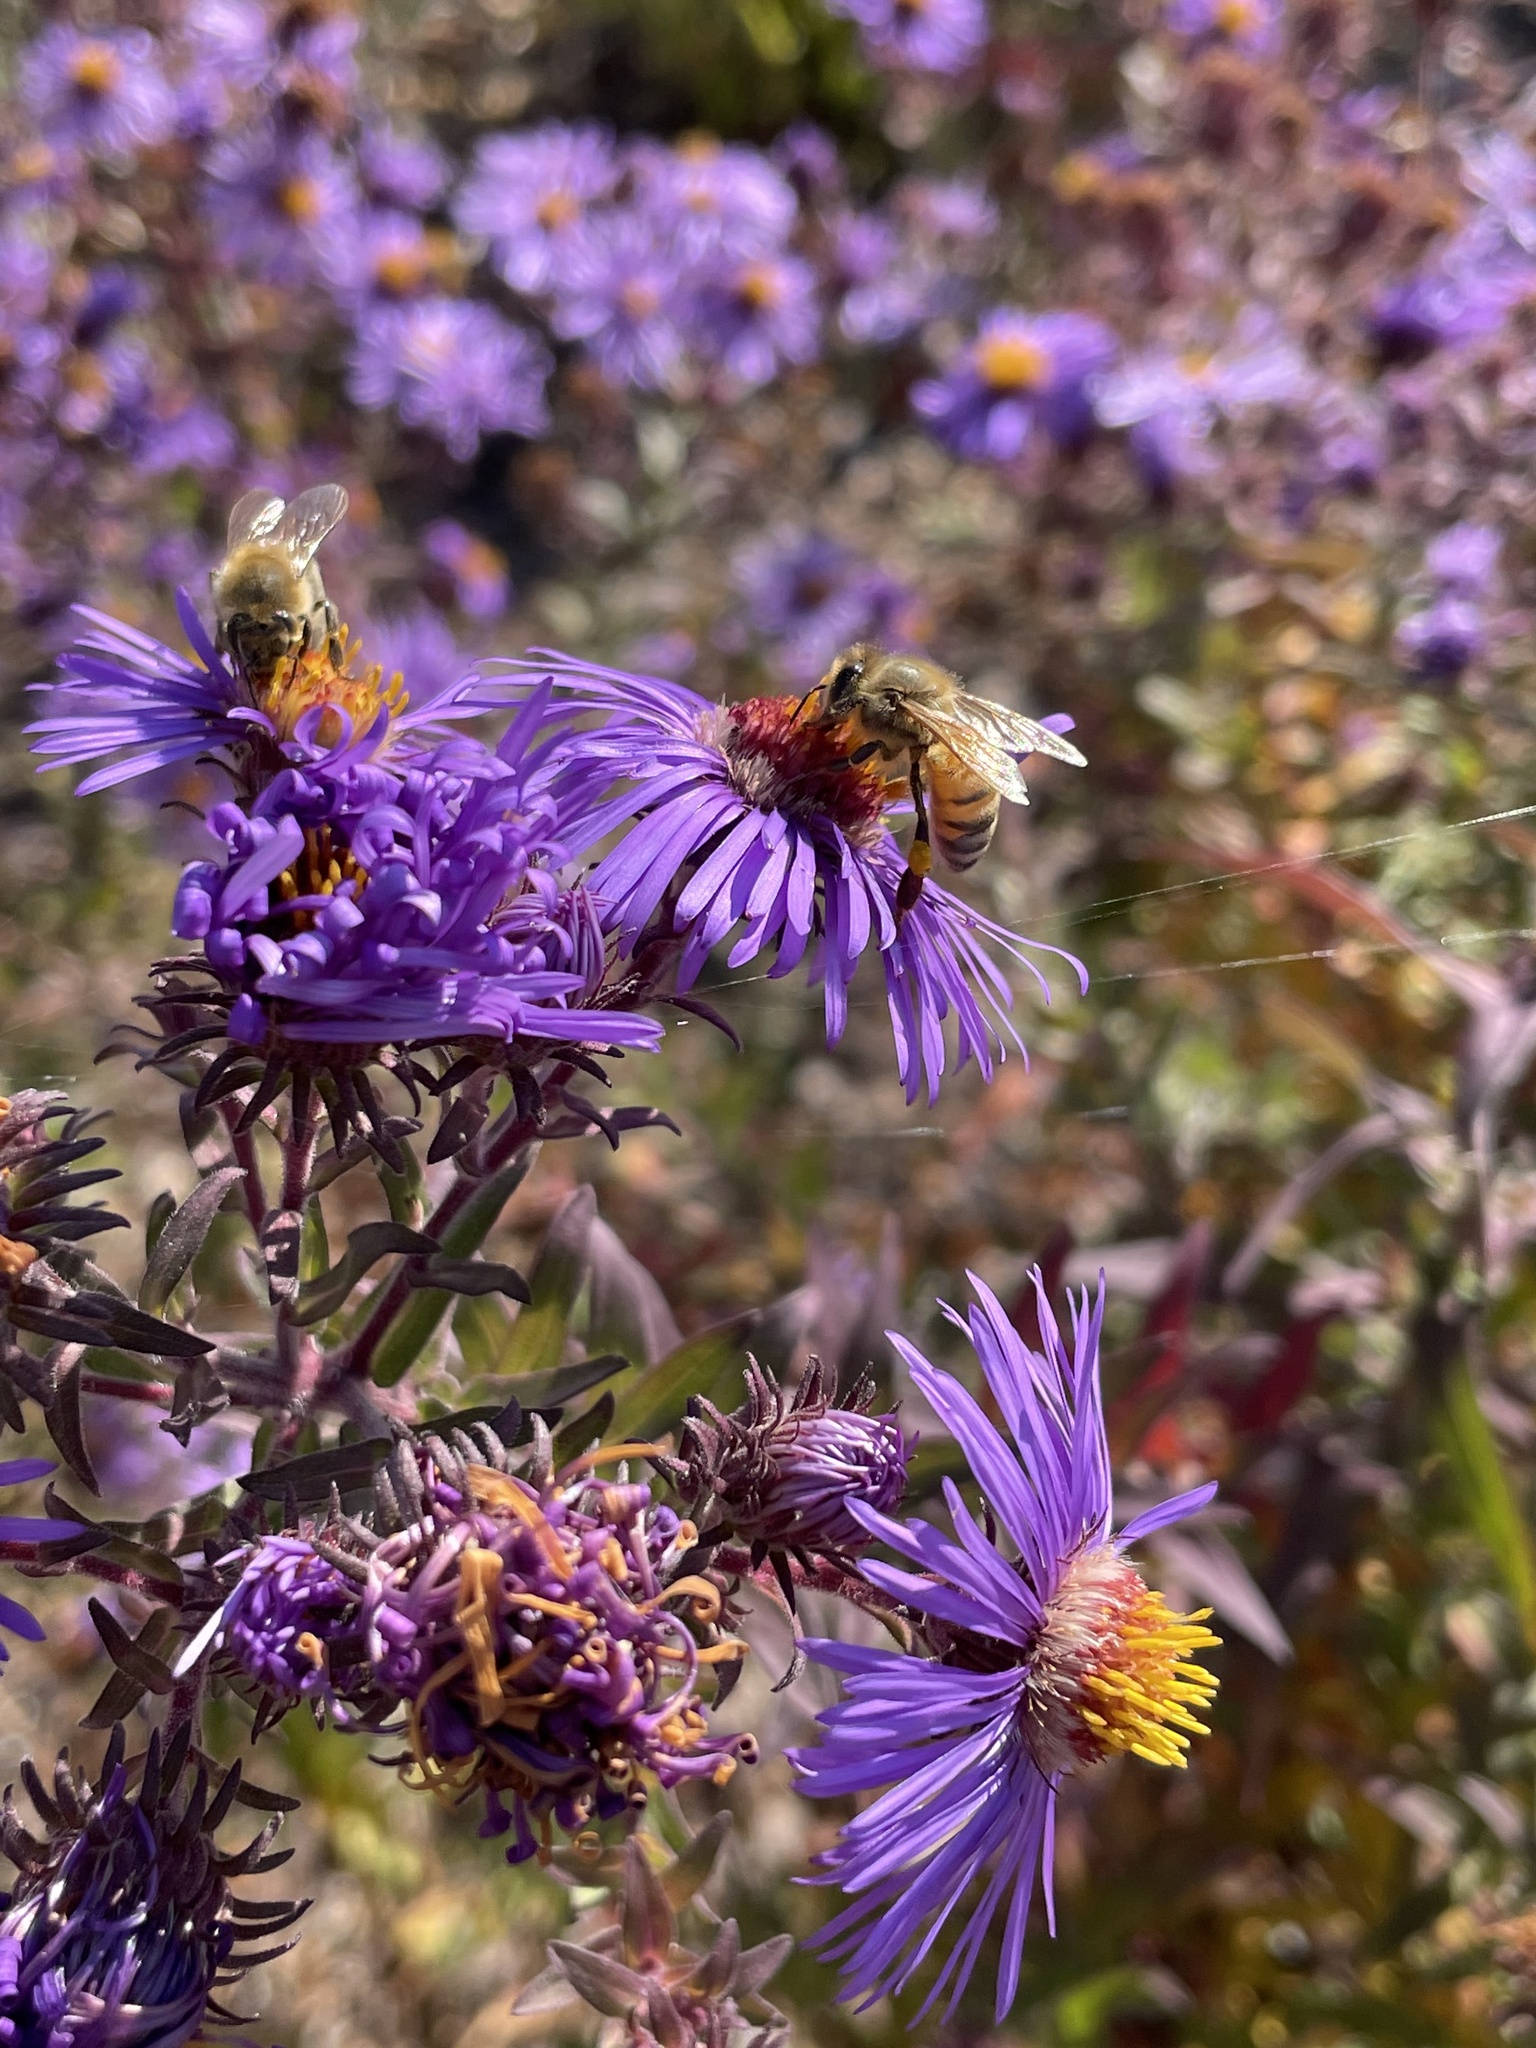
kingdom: Animalia
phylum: Arthropoda
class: Insecta
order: Hymenoptera
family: Apidae
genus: Apis
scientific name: Apis mellifera
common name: Honey bee
